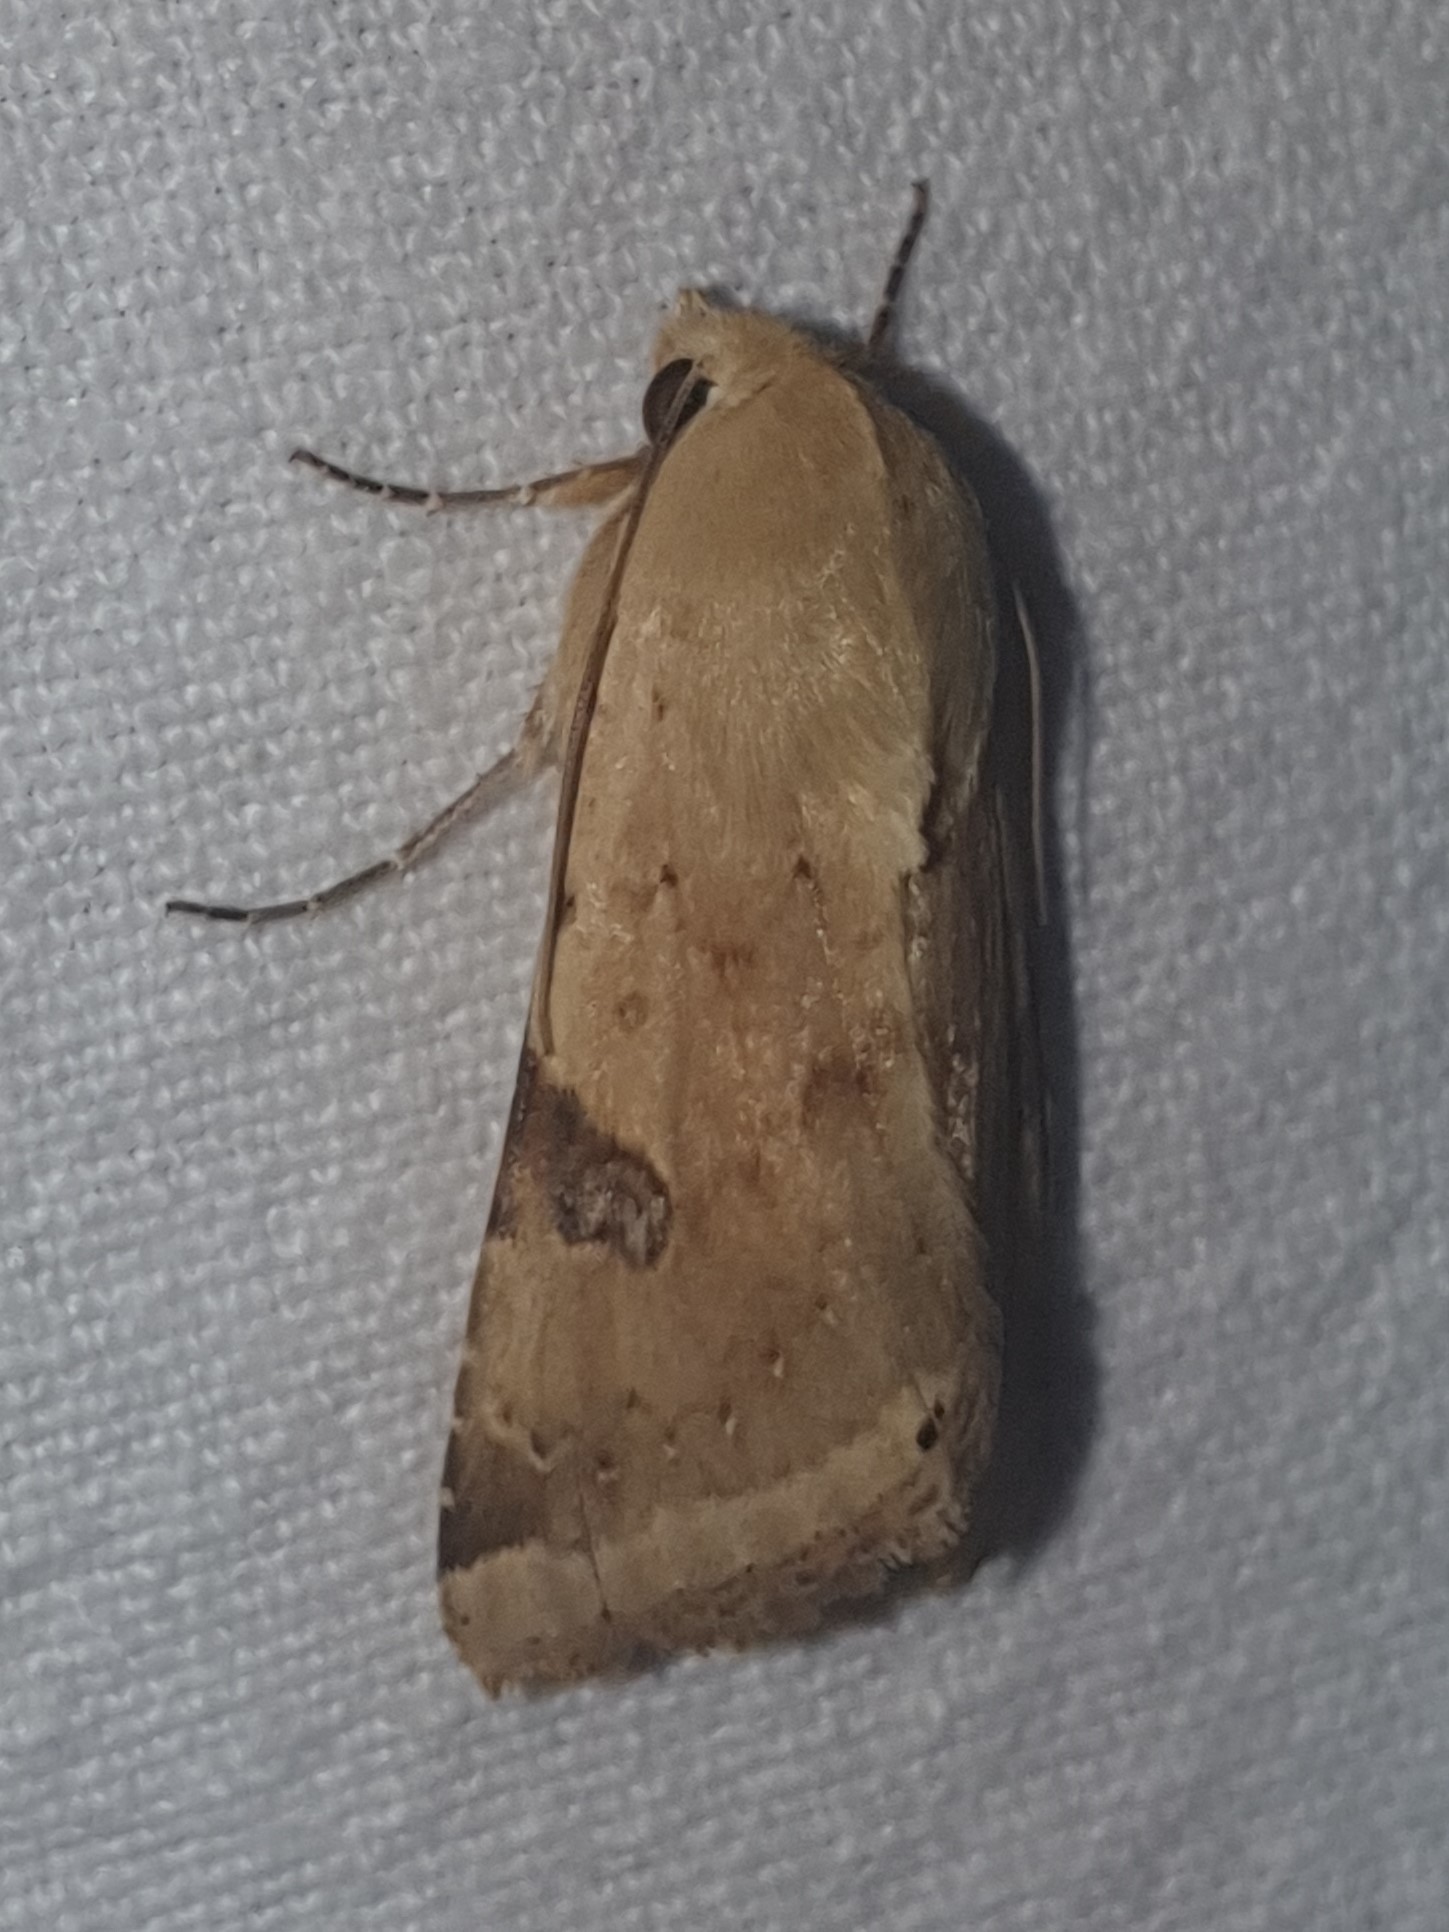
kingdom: Animalia
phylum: Arthropoda
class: Insecta
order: Lepidoptera
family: Noctuidae
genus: Heliothis
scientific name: Heliothis peltigera
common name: Bordered straw
